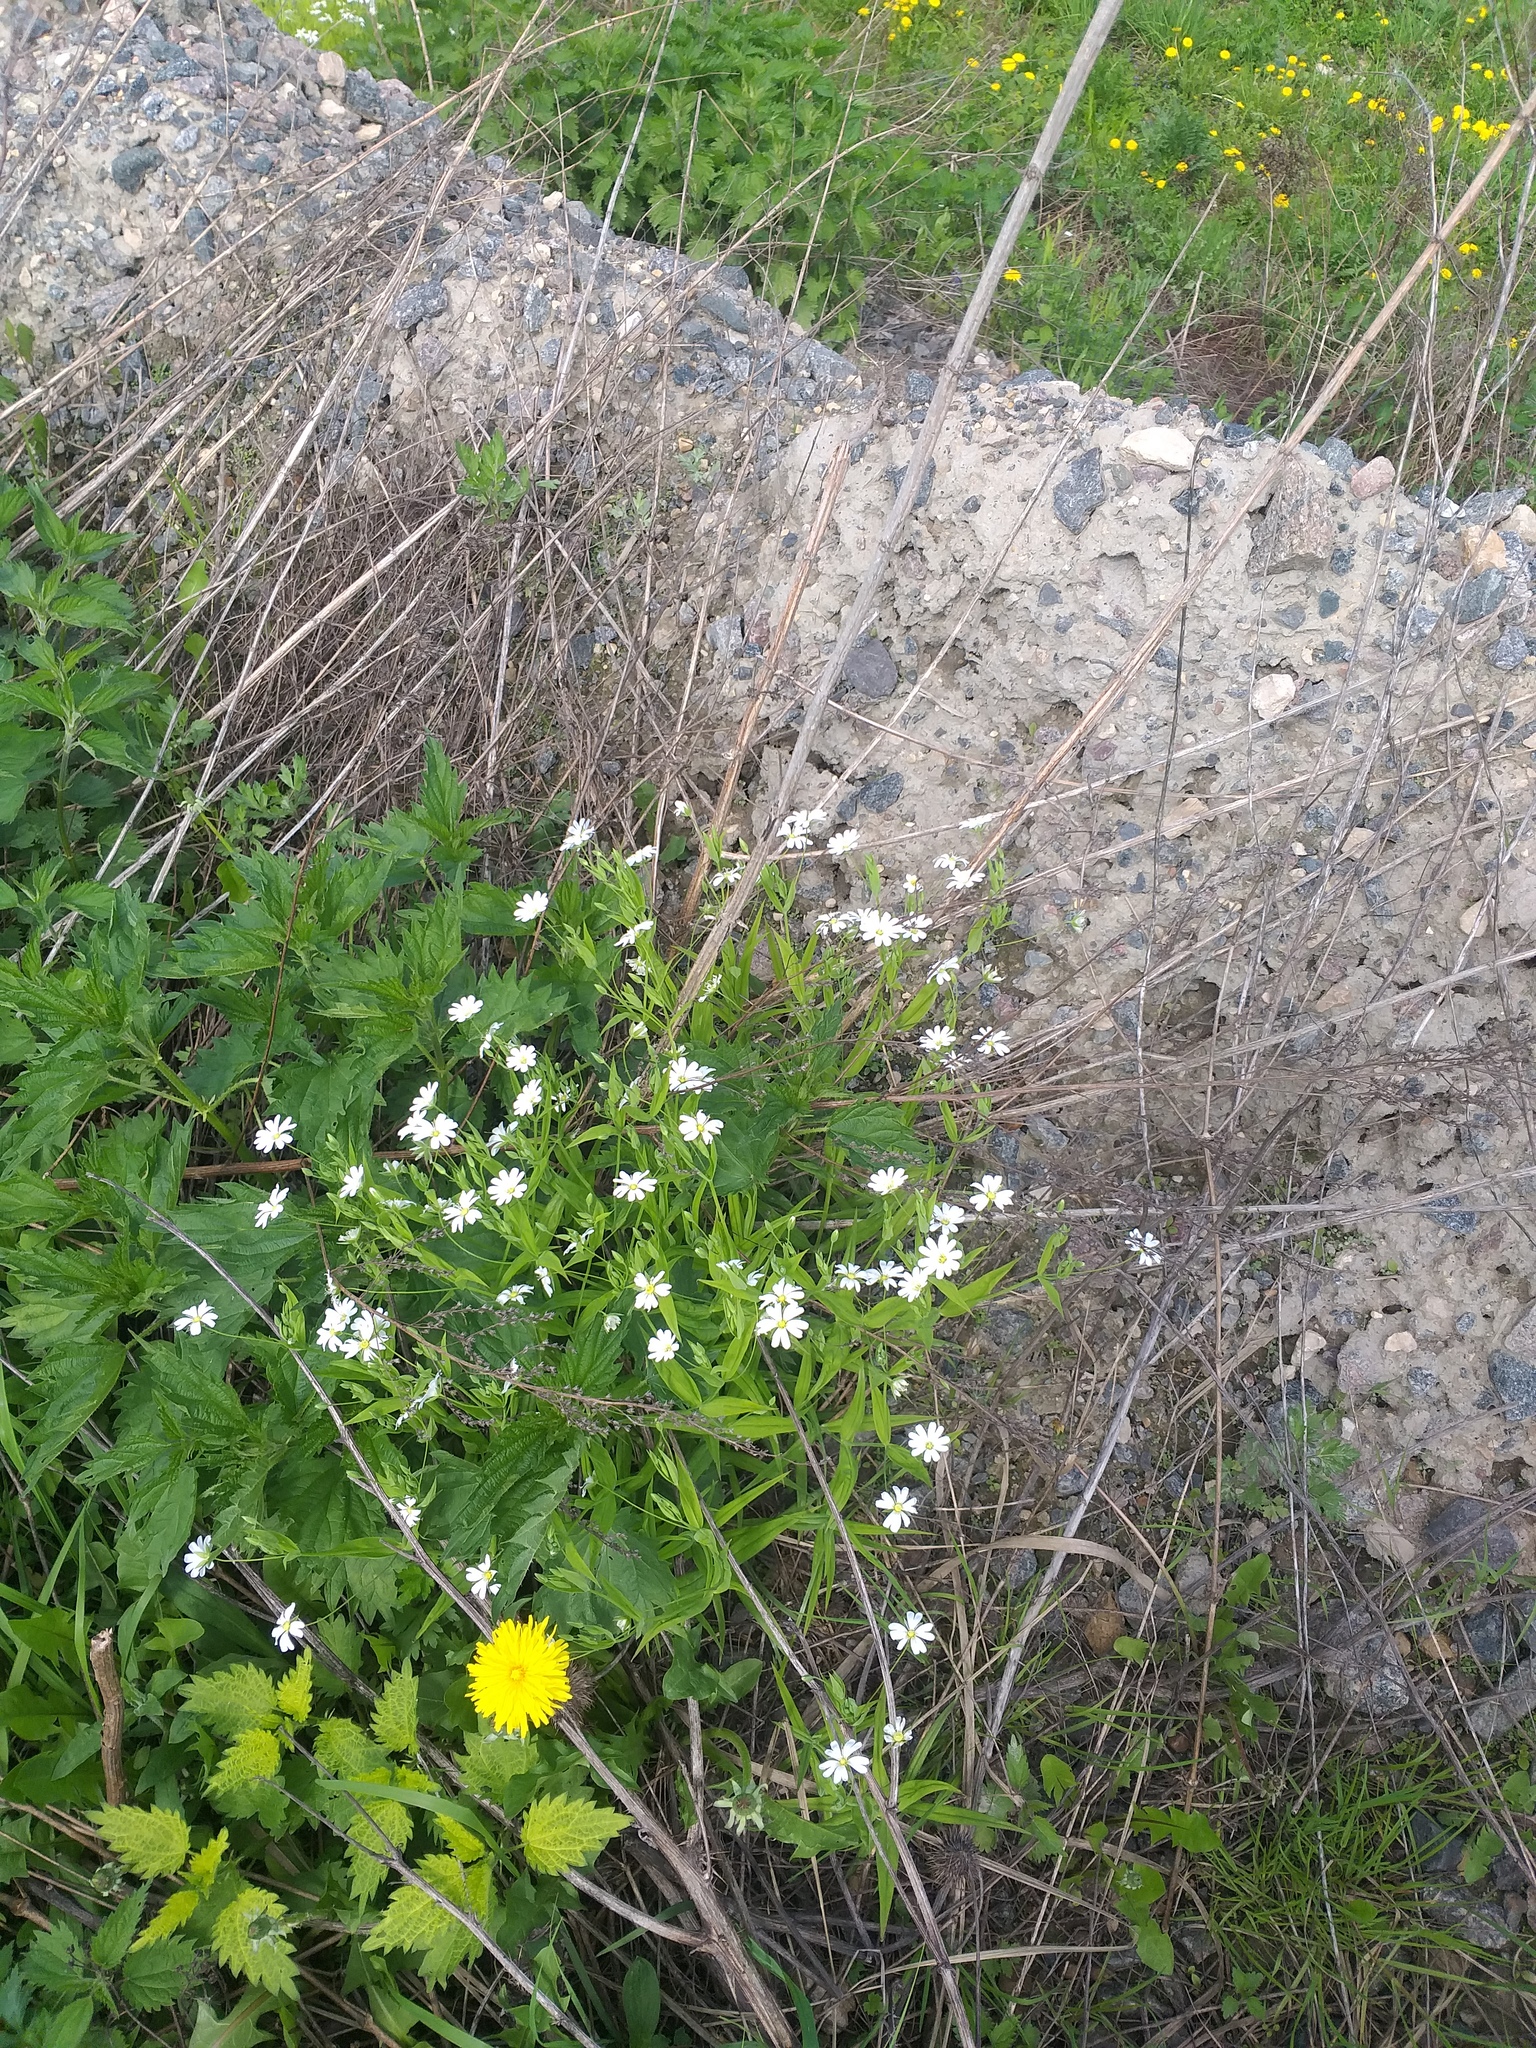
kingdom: Plantae
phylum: Tracheophyta
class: Magnoliopsida
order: Caryophyllales
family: Caryophyllaceae
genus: Rabelera
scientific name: Rabelera holostea
